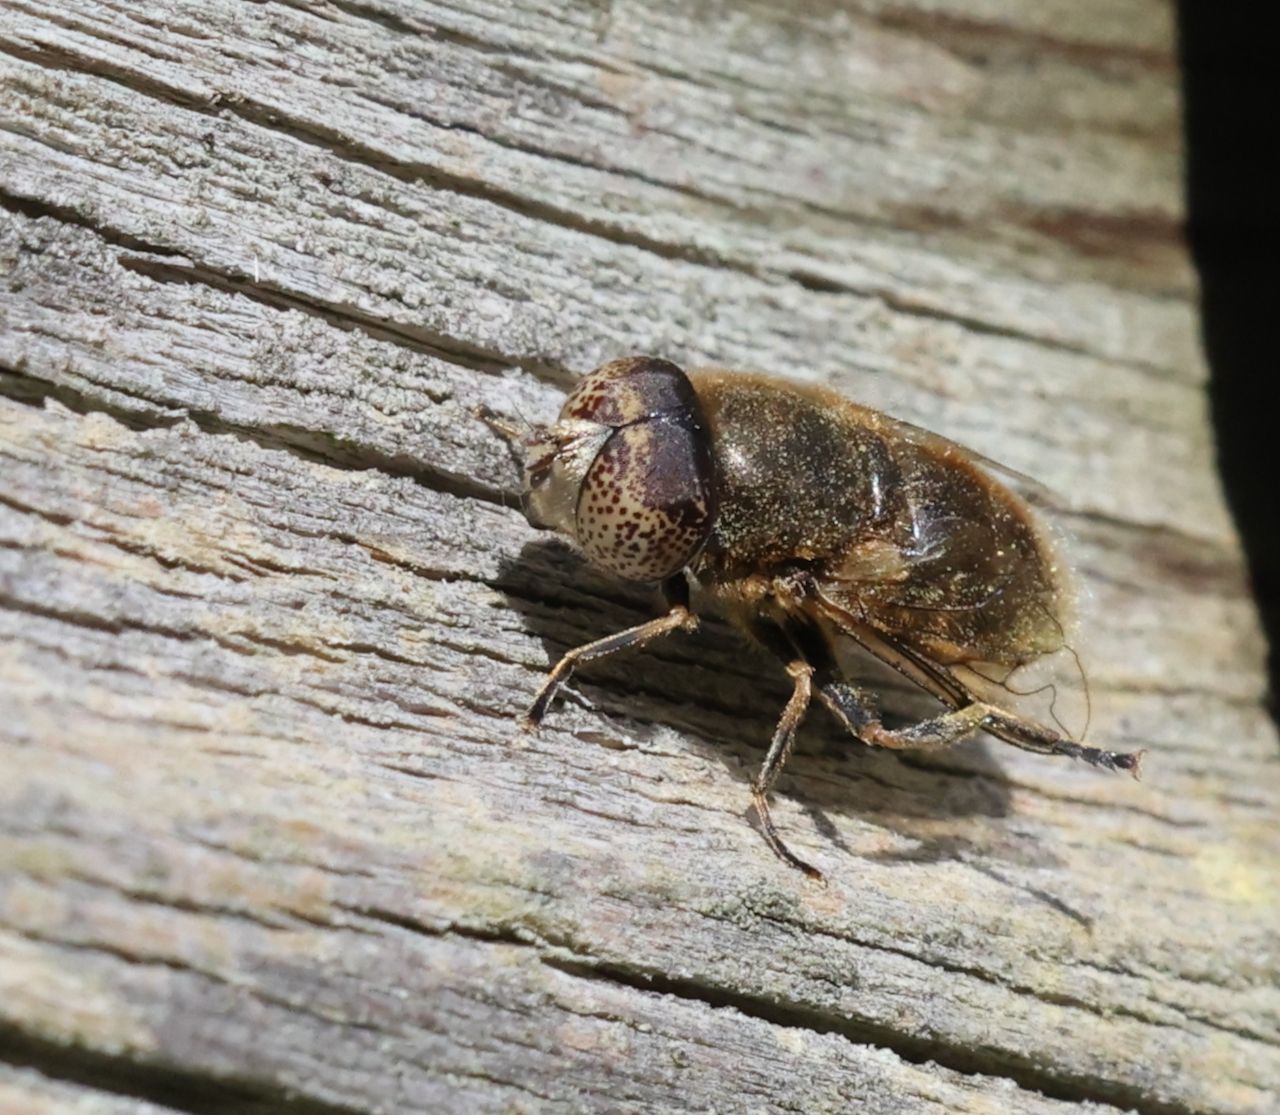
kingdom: Animalia
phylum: Arthropoda
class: Insecta
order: Diptera
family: Syrphidae
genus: Eristalinus
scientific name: Eristalinus aeneus
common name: Syrphid fly
